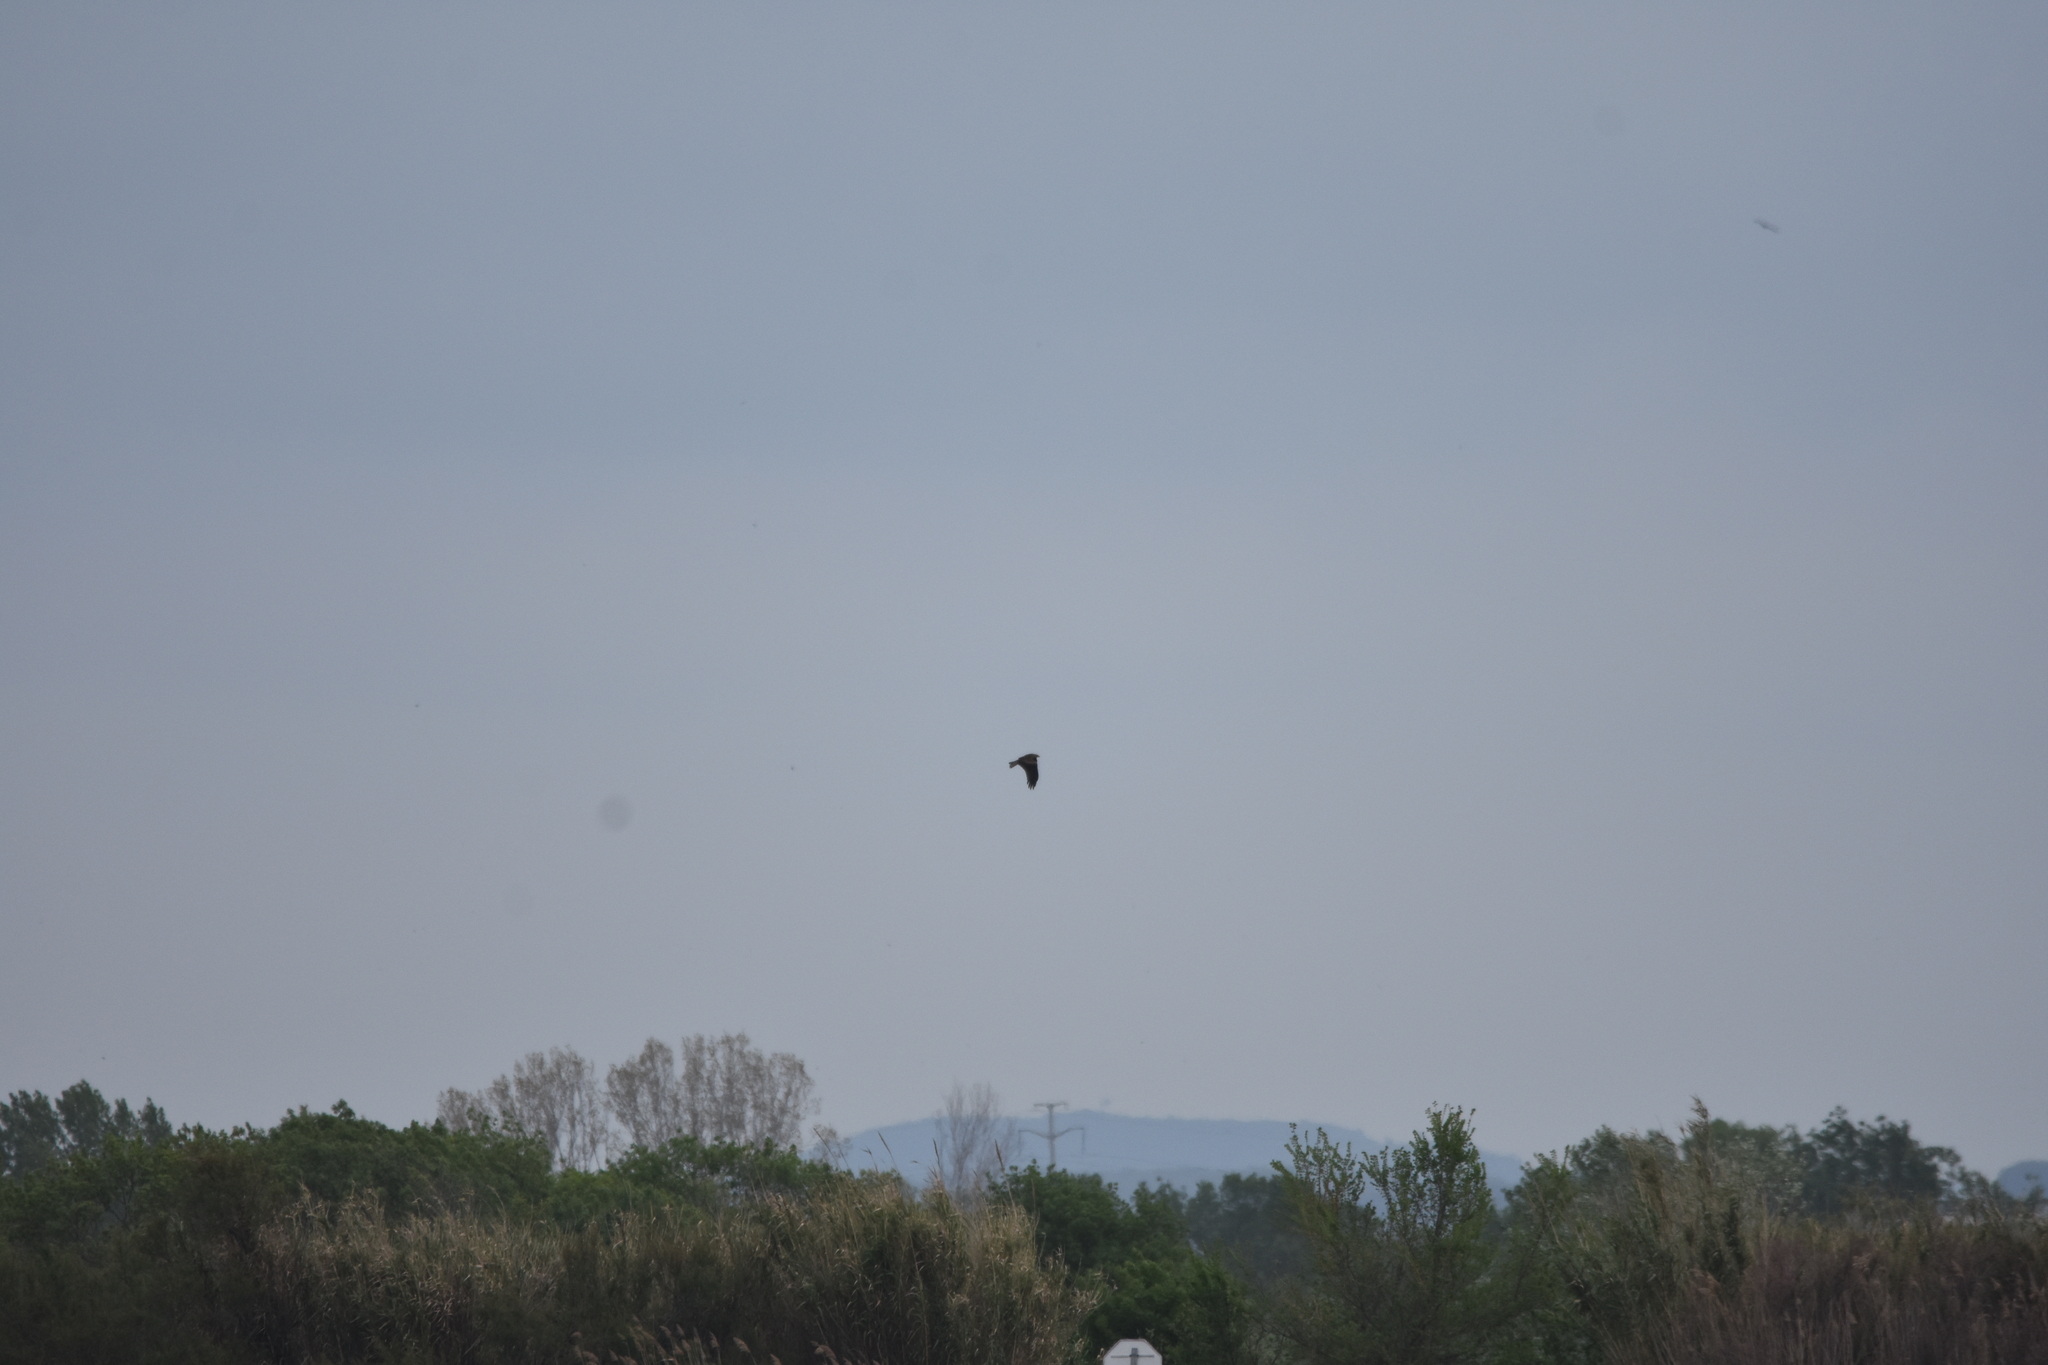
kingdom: Animalia
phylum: Chordata
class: Aves
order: Accipitriformes
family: Accipitridae
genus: Milvus
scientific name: Milvus migrans
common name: Black kite
